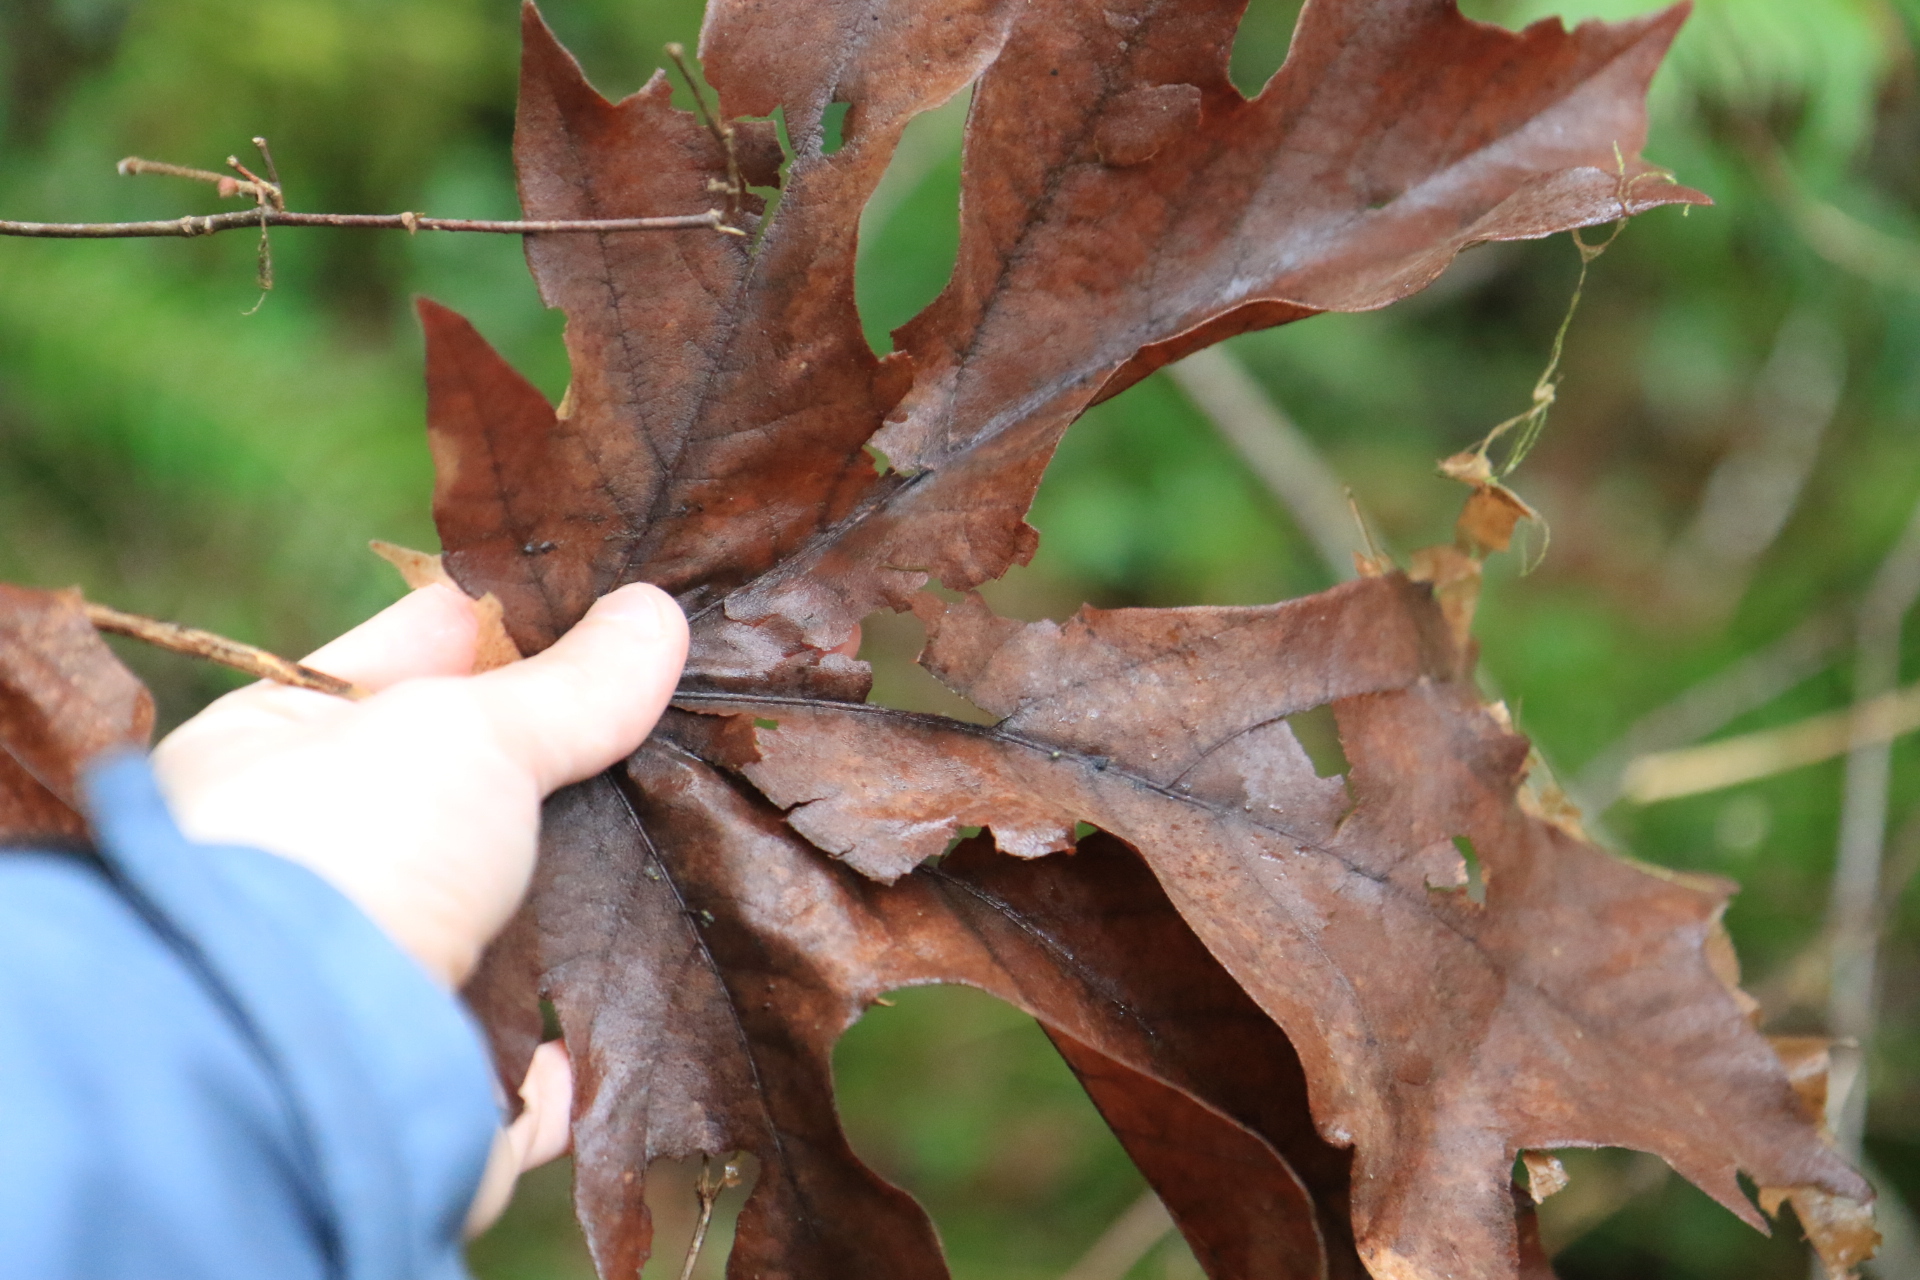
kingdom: Plantae
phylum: Tracheophyta
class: Magnoliopsida
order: Sapindales
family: Sapindaceae
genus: Acer
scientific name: Acer macrophyllum
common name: Oregon maple
